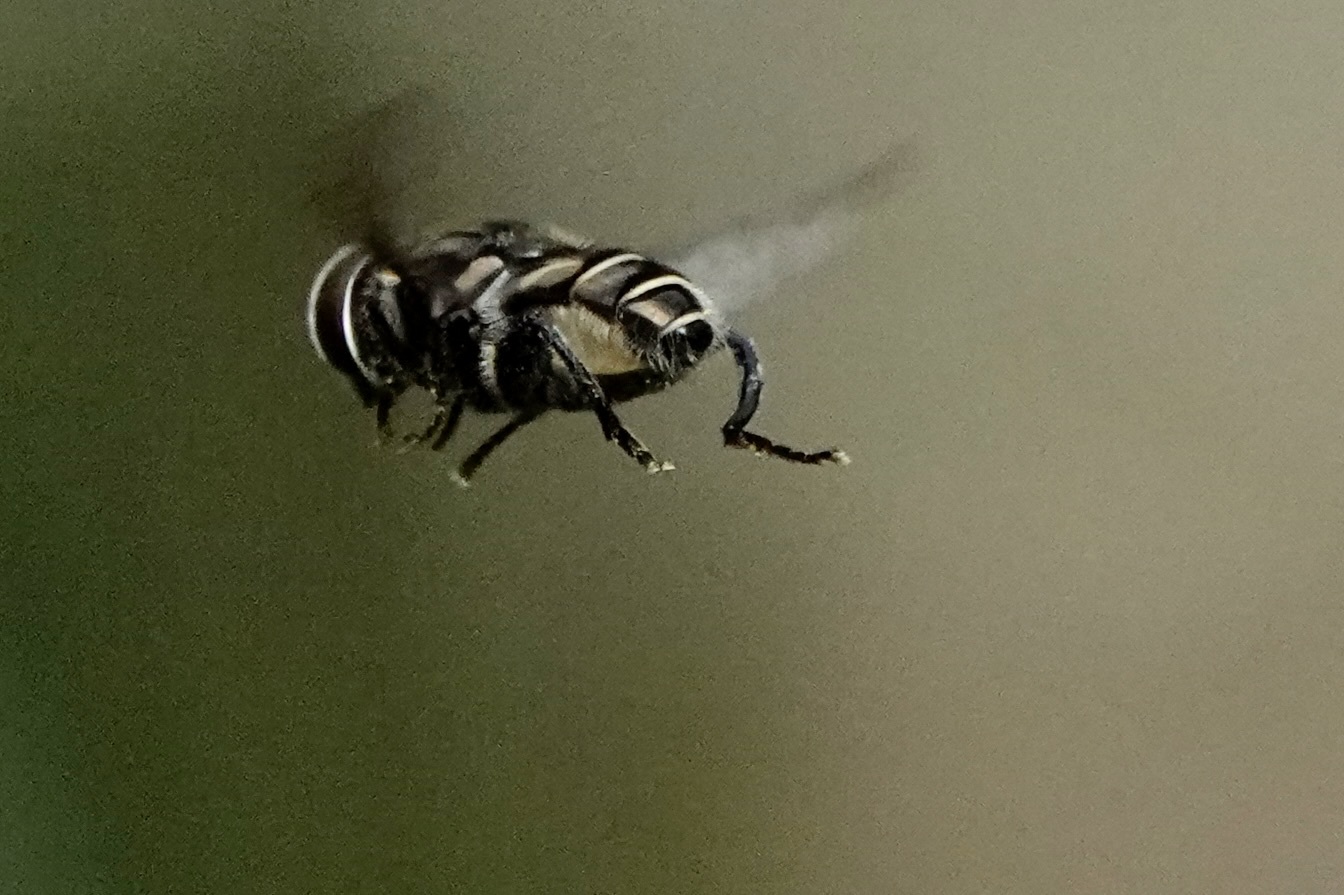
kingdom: Animalia
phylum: Arthropoda
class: Insecta
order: Diptera
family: Syrphidae
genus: Palpada
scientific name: Palpada furcata
